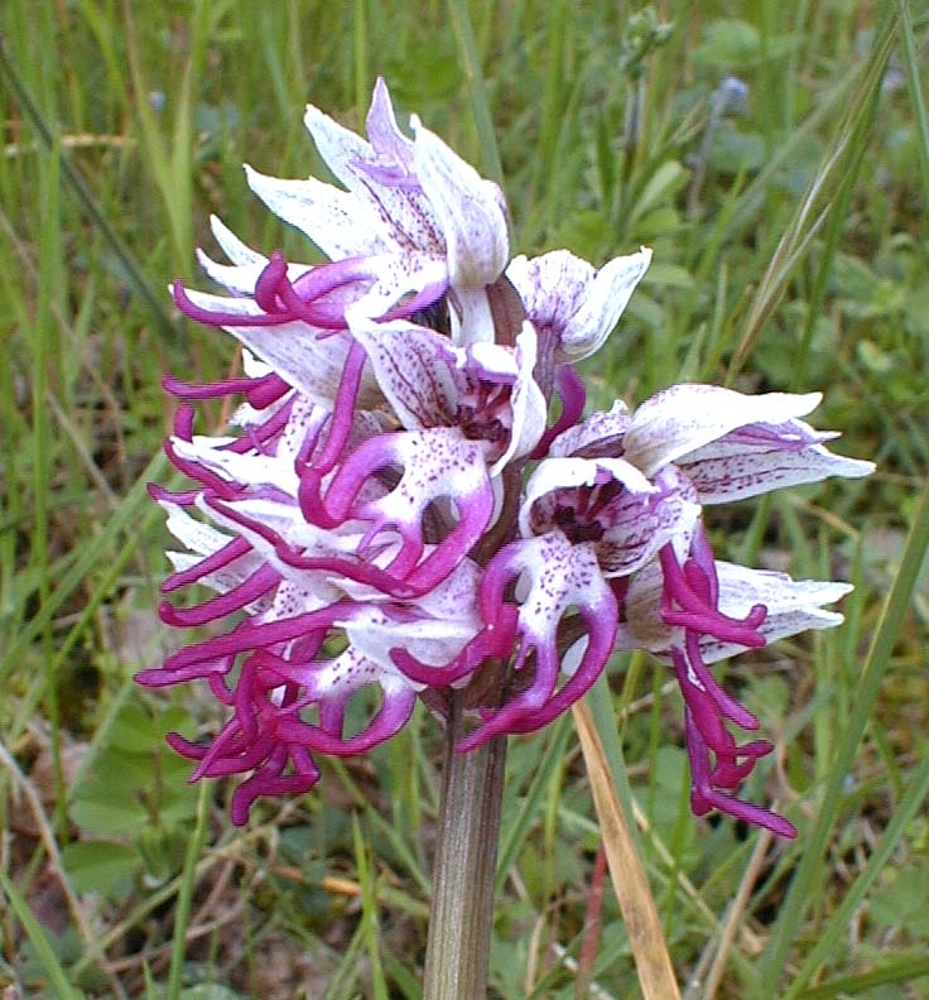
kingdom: Plantae
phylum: Tracheophyta
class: Liliopsida
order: Asparagales
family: Orchidaceae
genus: Orchis
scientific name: Orchis simia
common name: Monkey orchid
